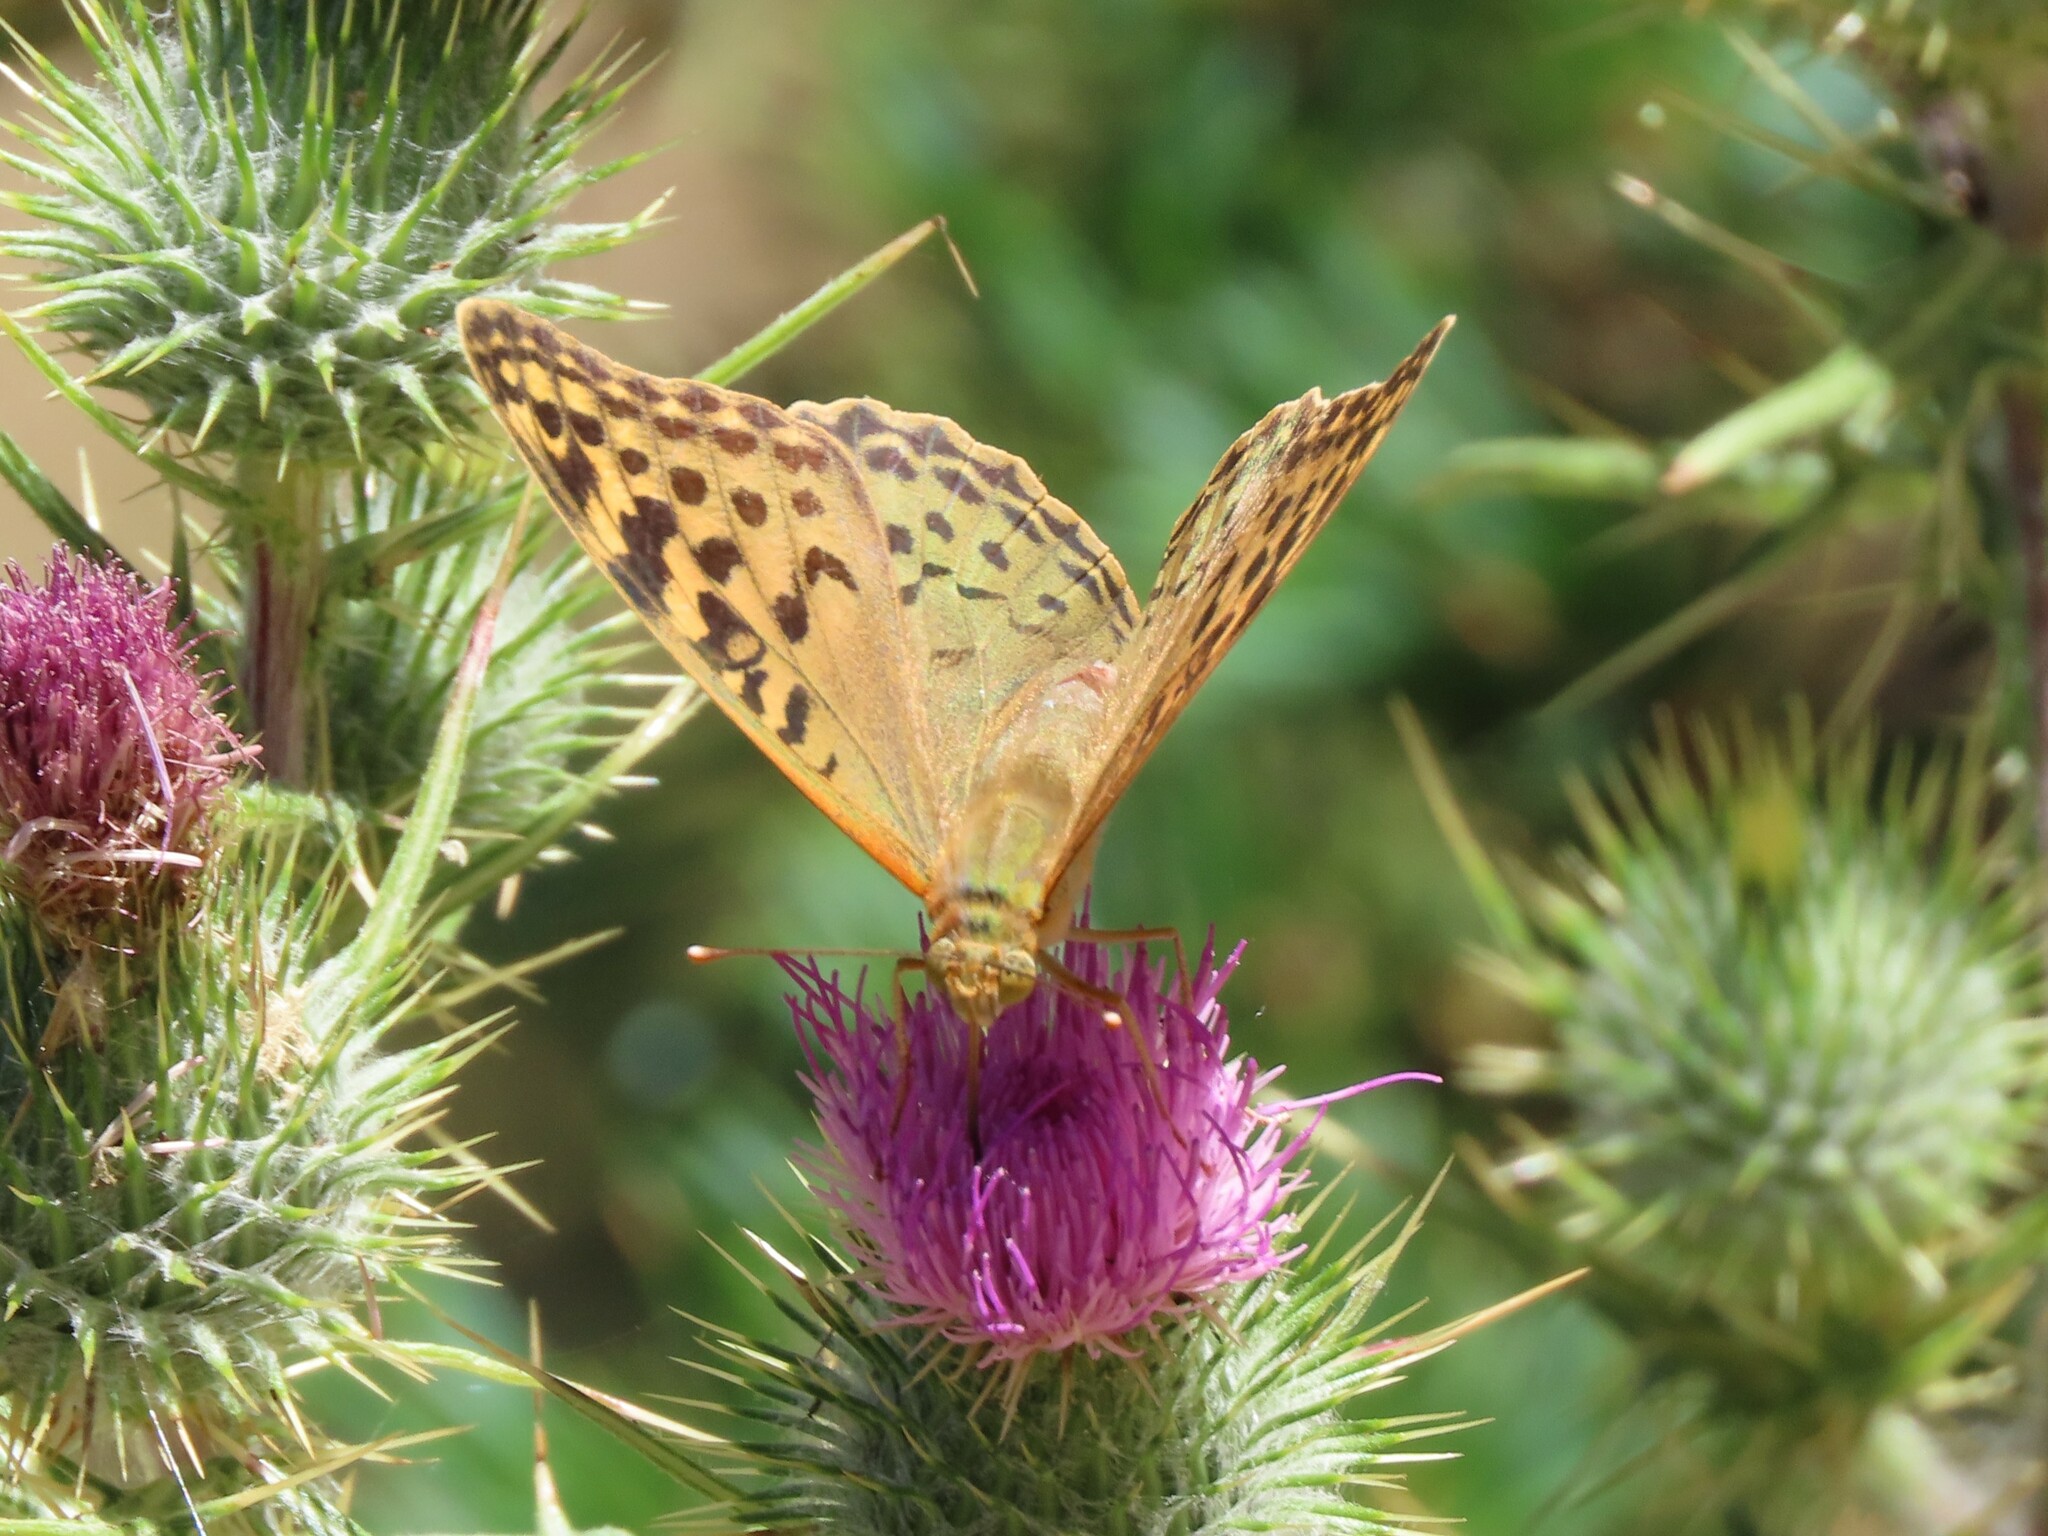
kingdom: Animalia
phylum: Arthropoda
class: Insecta
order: Lepidoptera
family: Nymphalidae
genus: Damora
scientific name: Damora pandora
